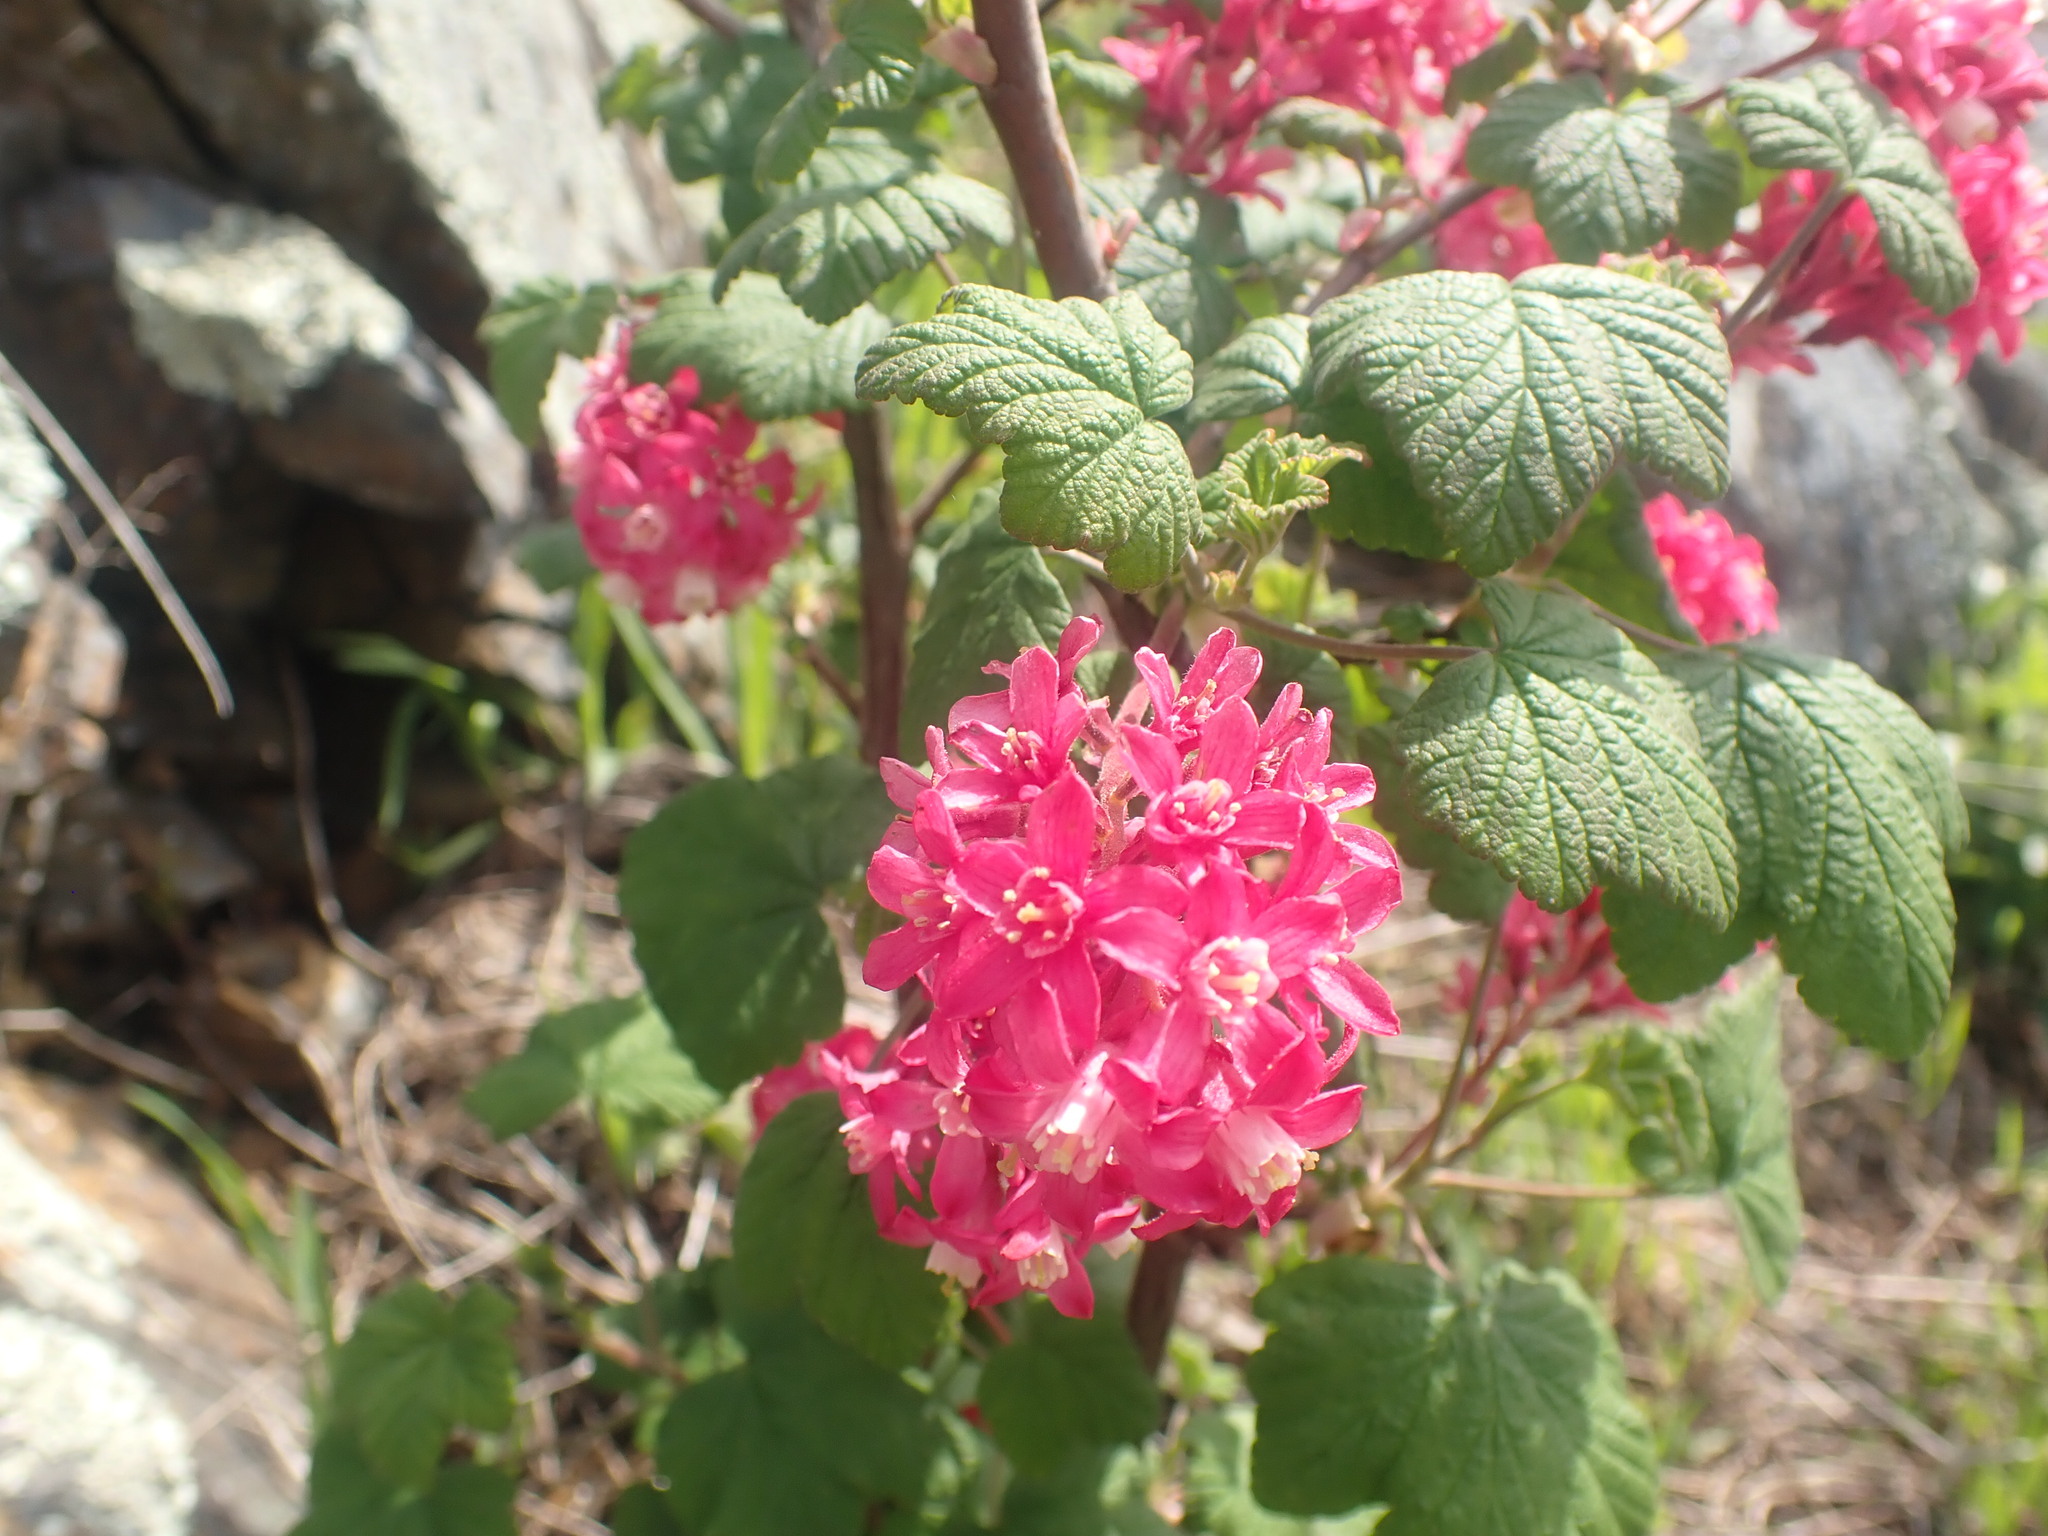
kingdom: Plantae
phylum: Tracheophyta
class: Magnoliopsida
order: Saxifragales
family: Grossulariaceae
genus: Ribes
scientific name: Ribes sanguineum
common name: Flowering currant
